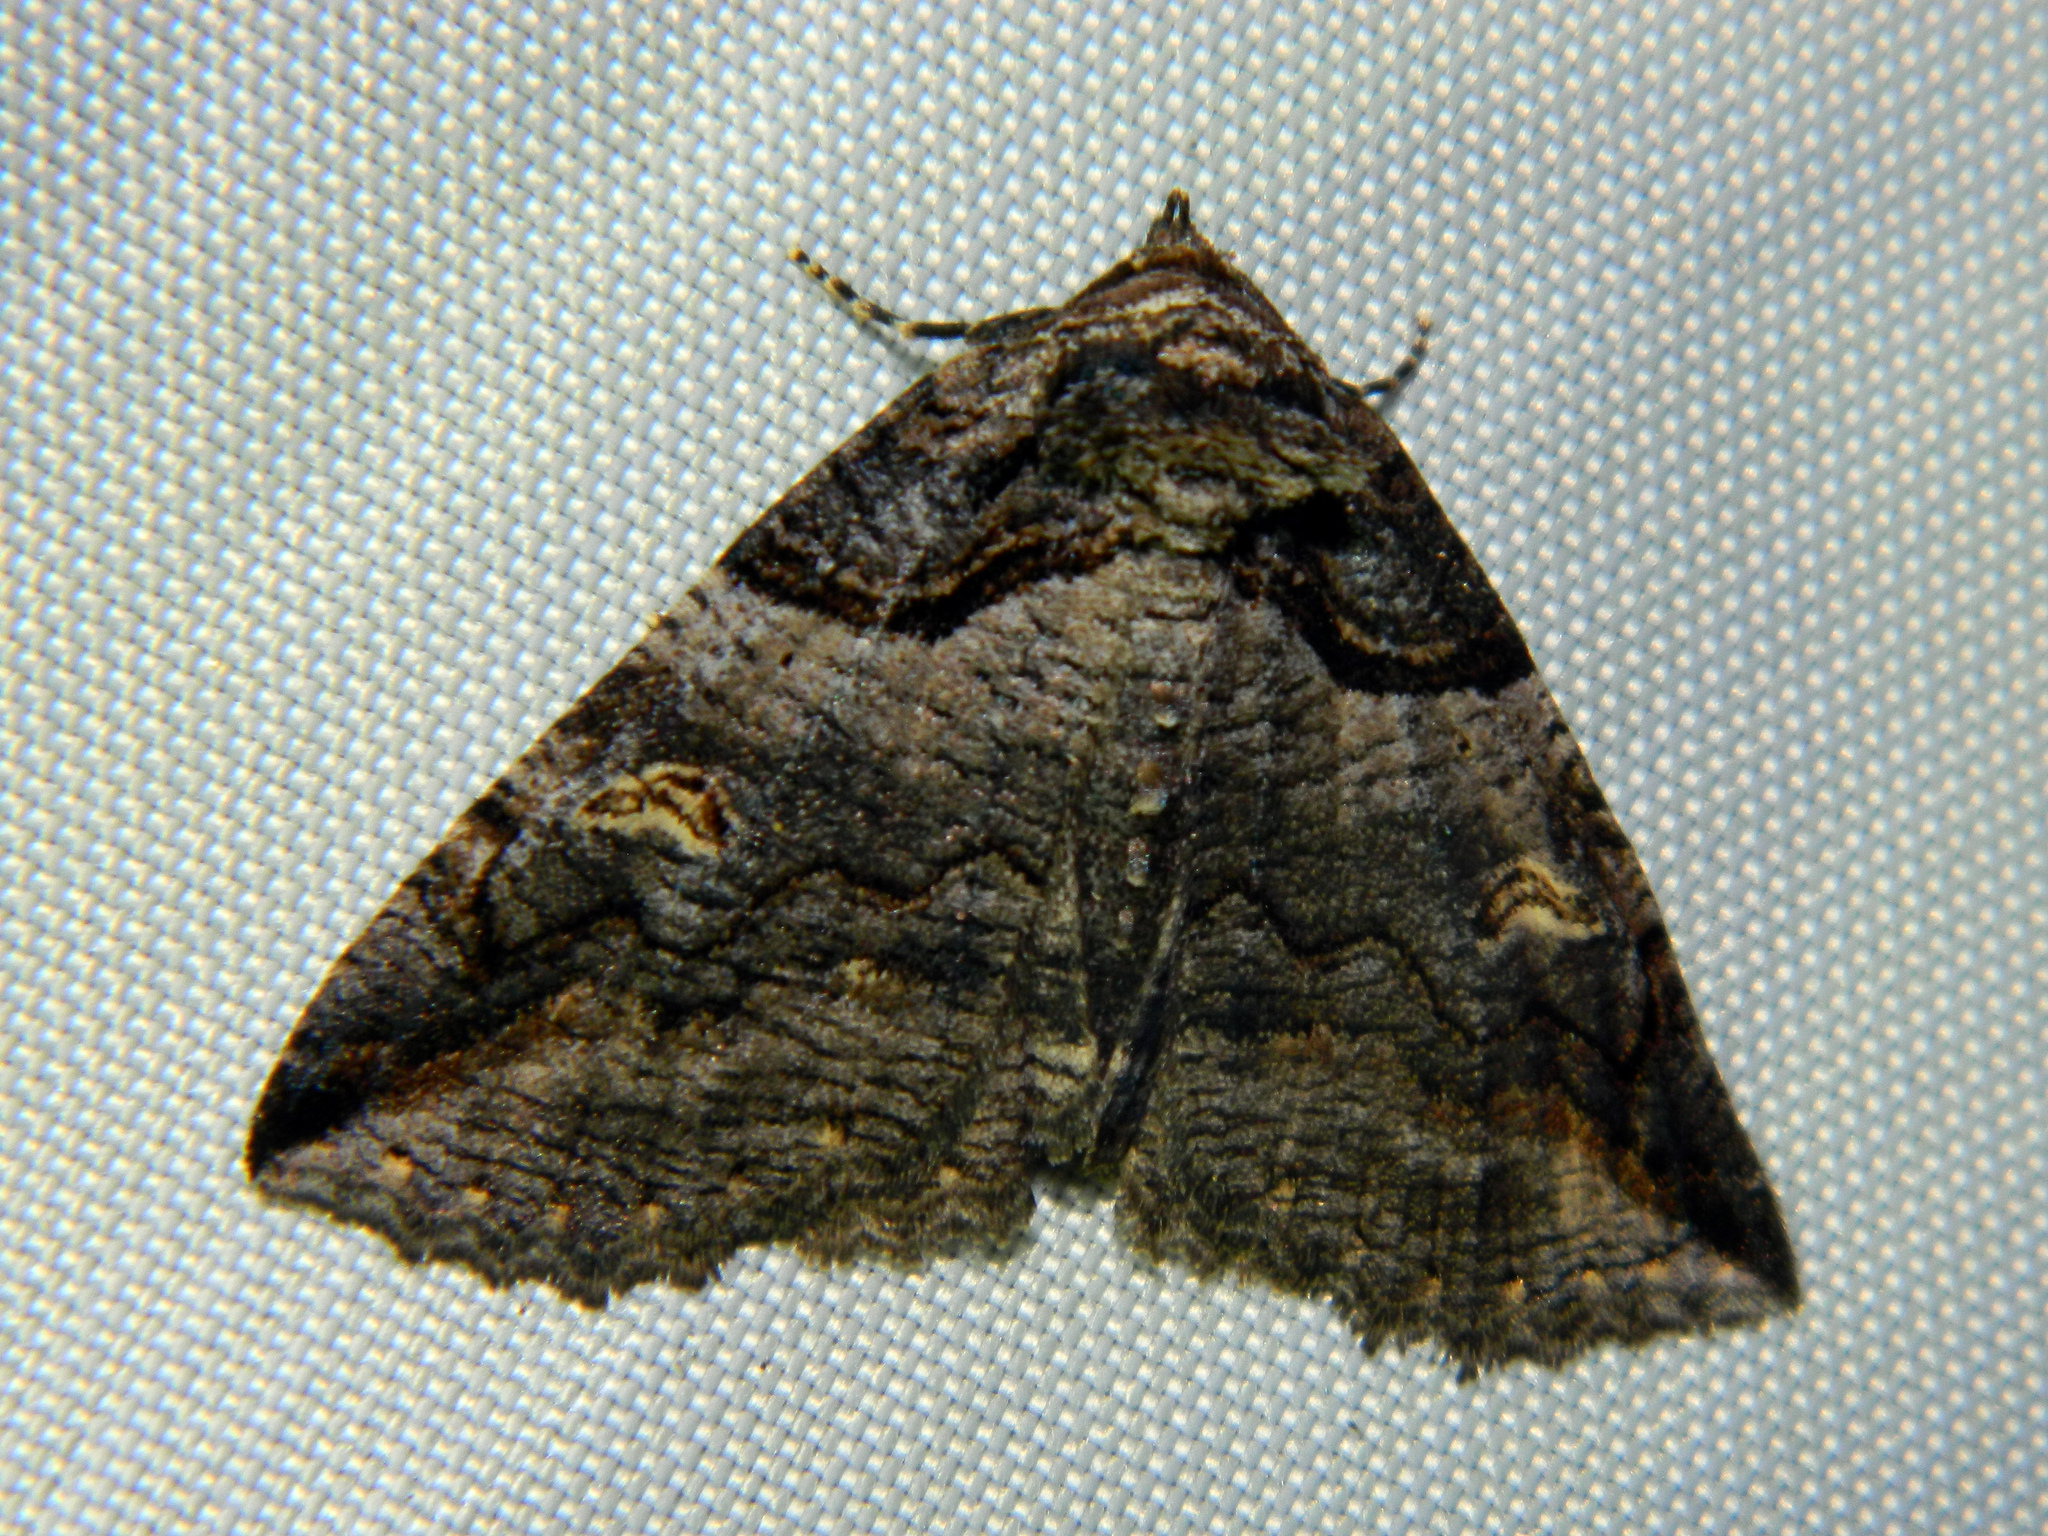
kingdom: Animalia
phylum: Arthropoda
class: Insecta
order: Lepidoptera
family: Erebidae
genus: Zale
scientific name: Zale intenta
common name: Intent zale moth
